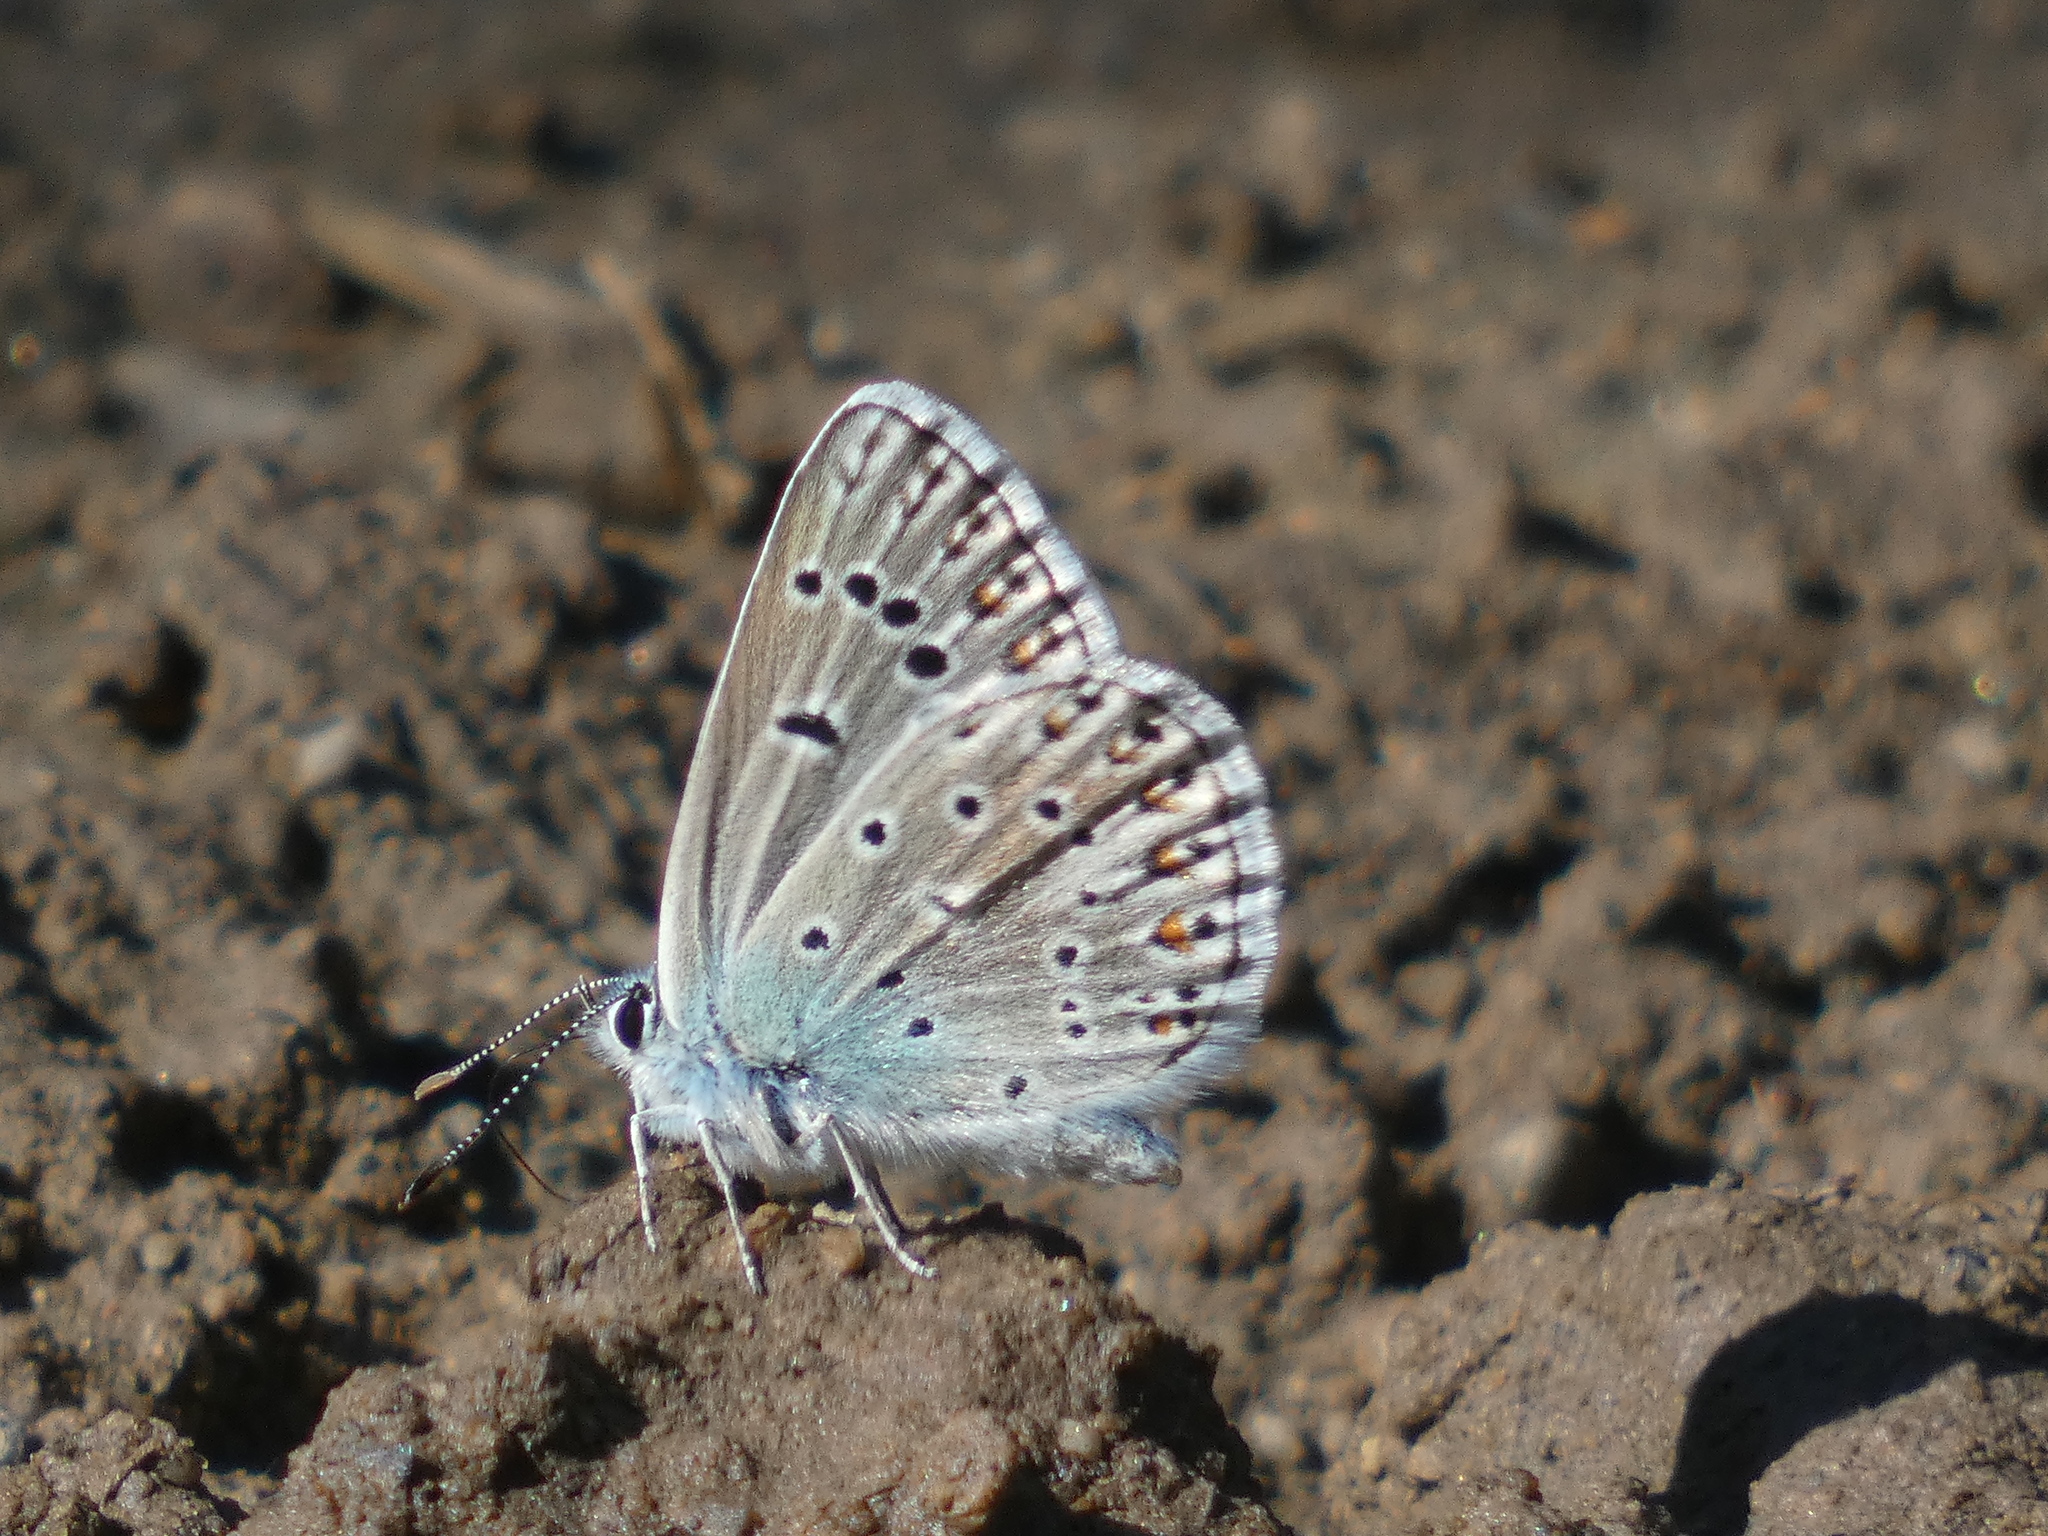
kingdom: Animalia
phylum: Arthropoda
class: Insecta
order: Lepidoptera
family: Lycaenidae
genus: Plebicula
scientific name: Plebicula escheri
